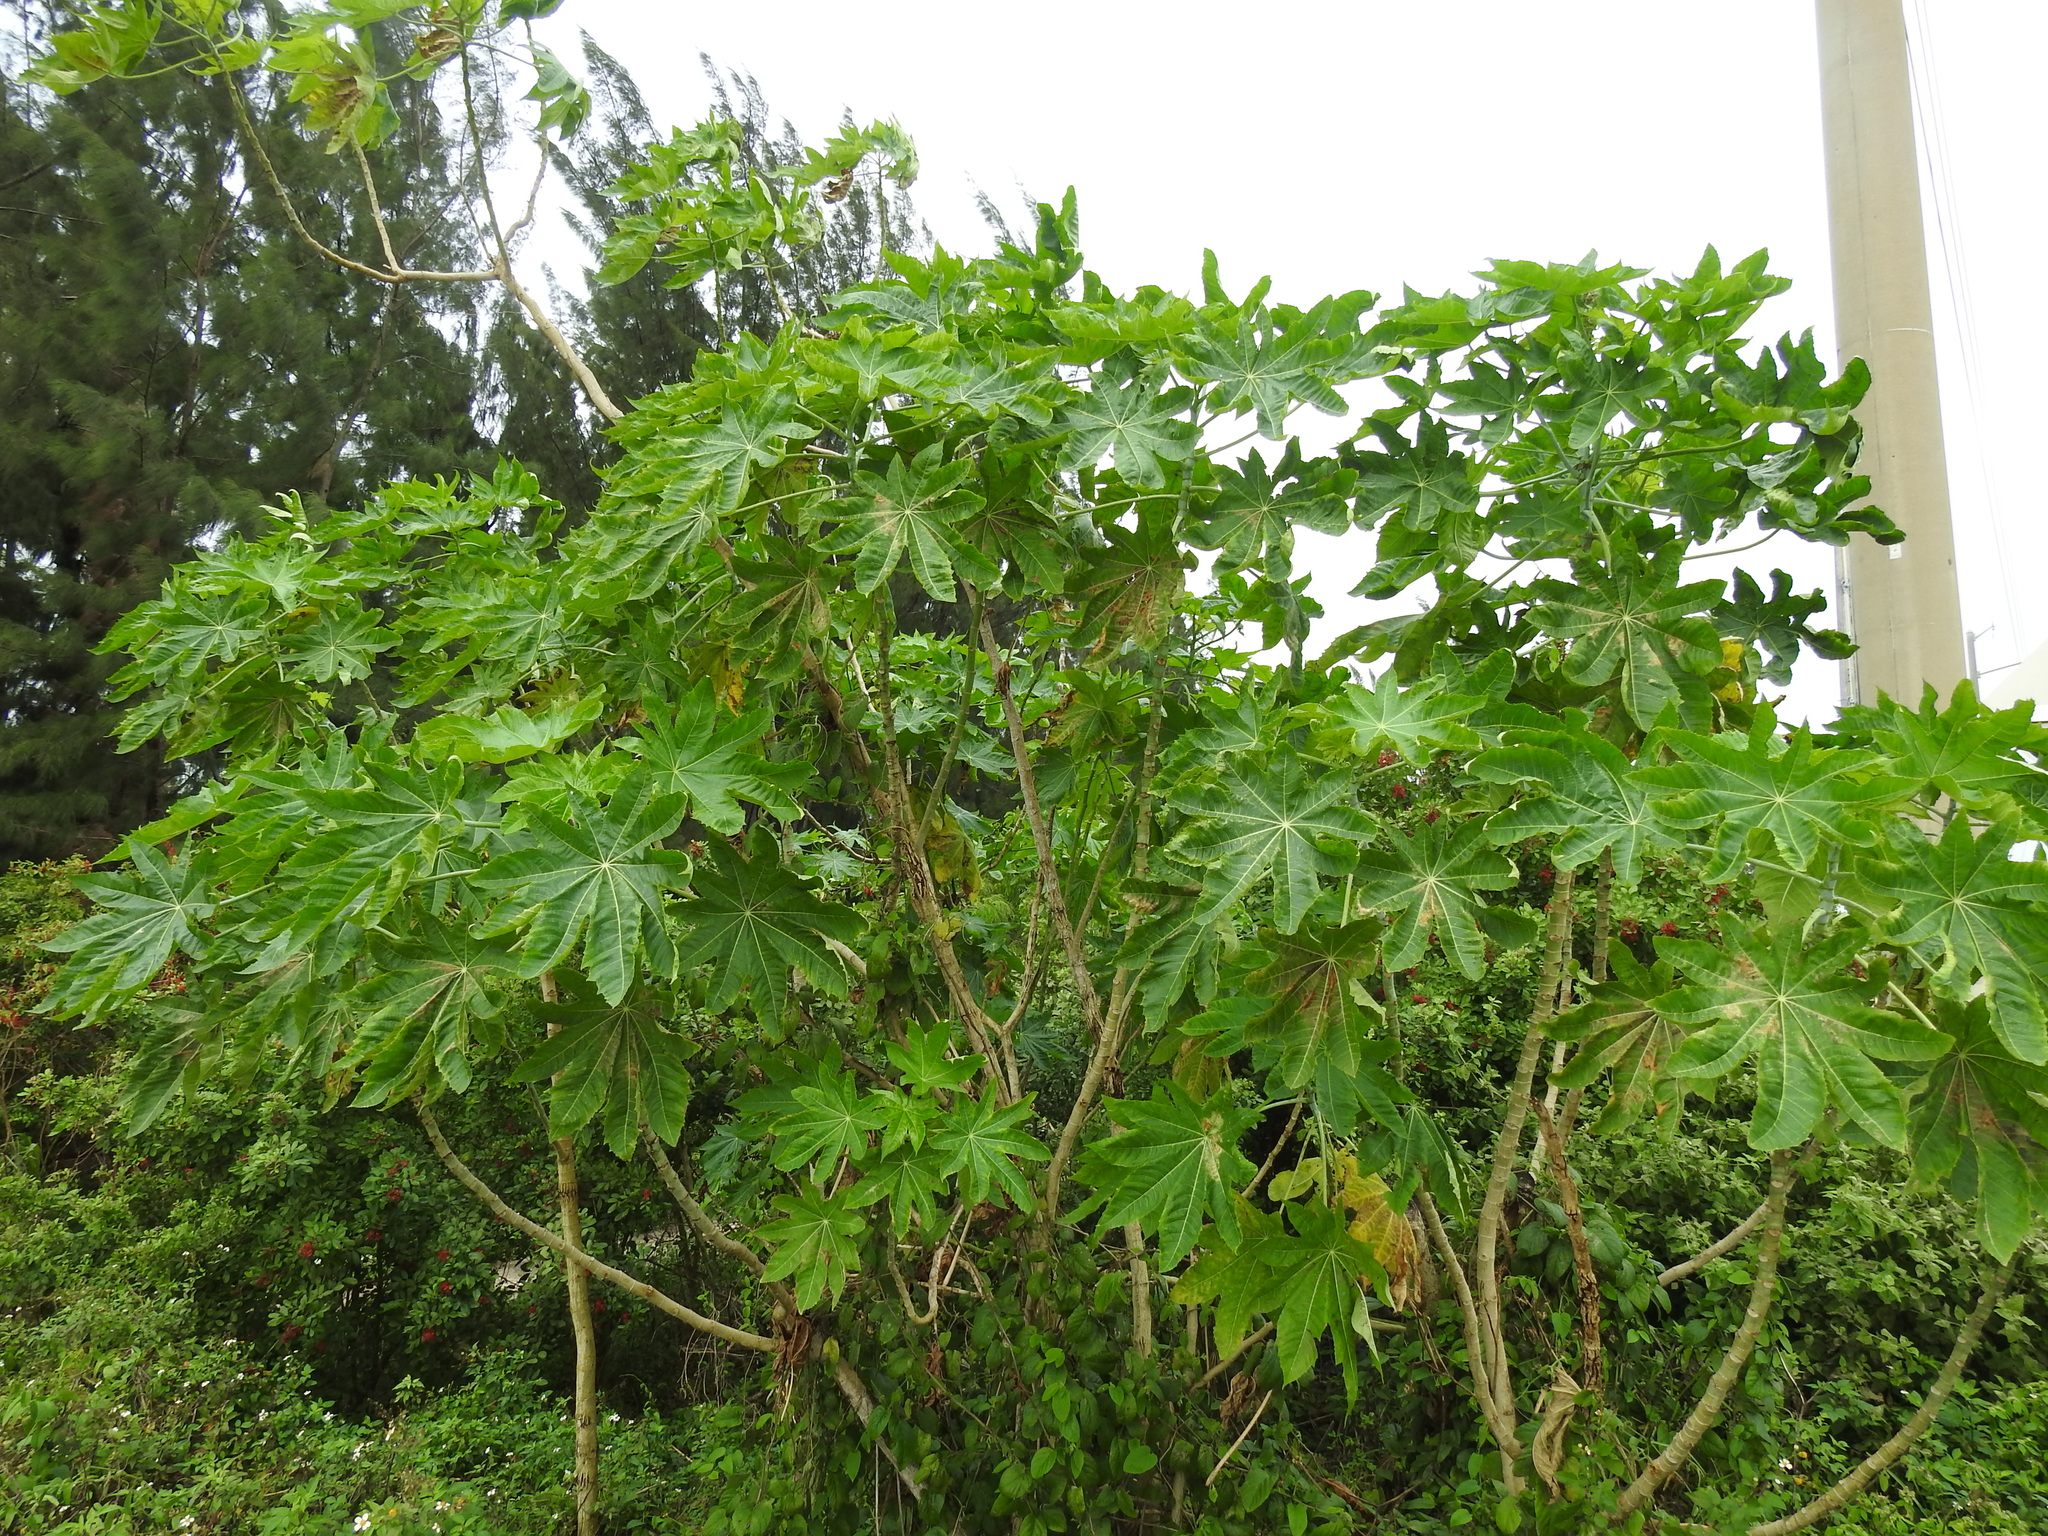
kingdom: Plantae
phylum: Tracheophyta
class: Magnoliopsida
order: Malpighiales
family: Euphorbiaceae
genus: Ricinus
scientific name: Ricinus communis
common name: Castor-oil-plant
